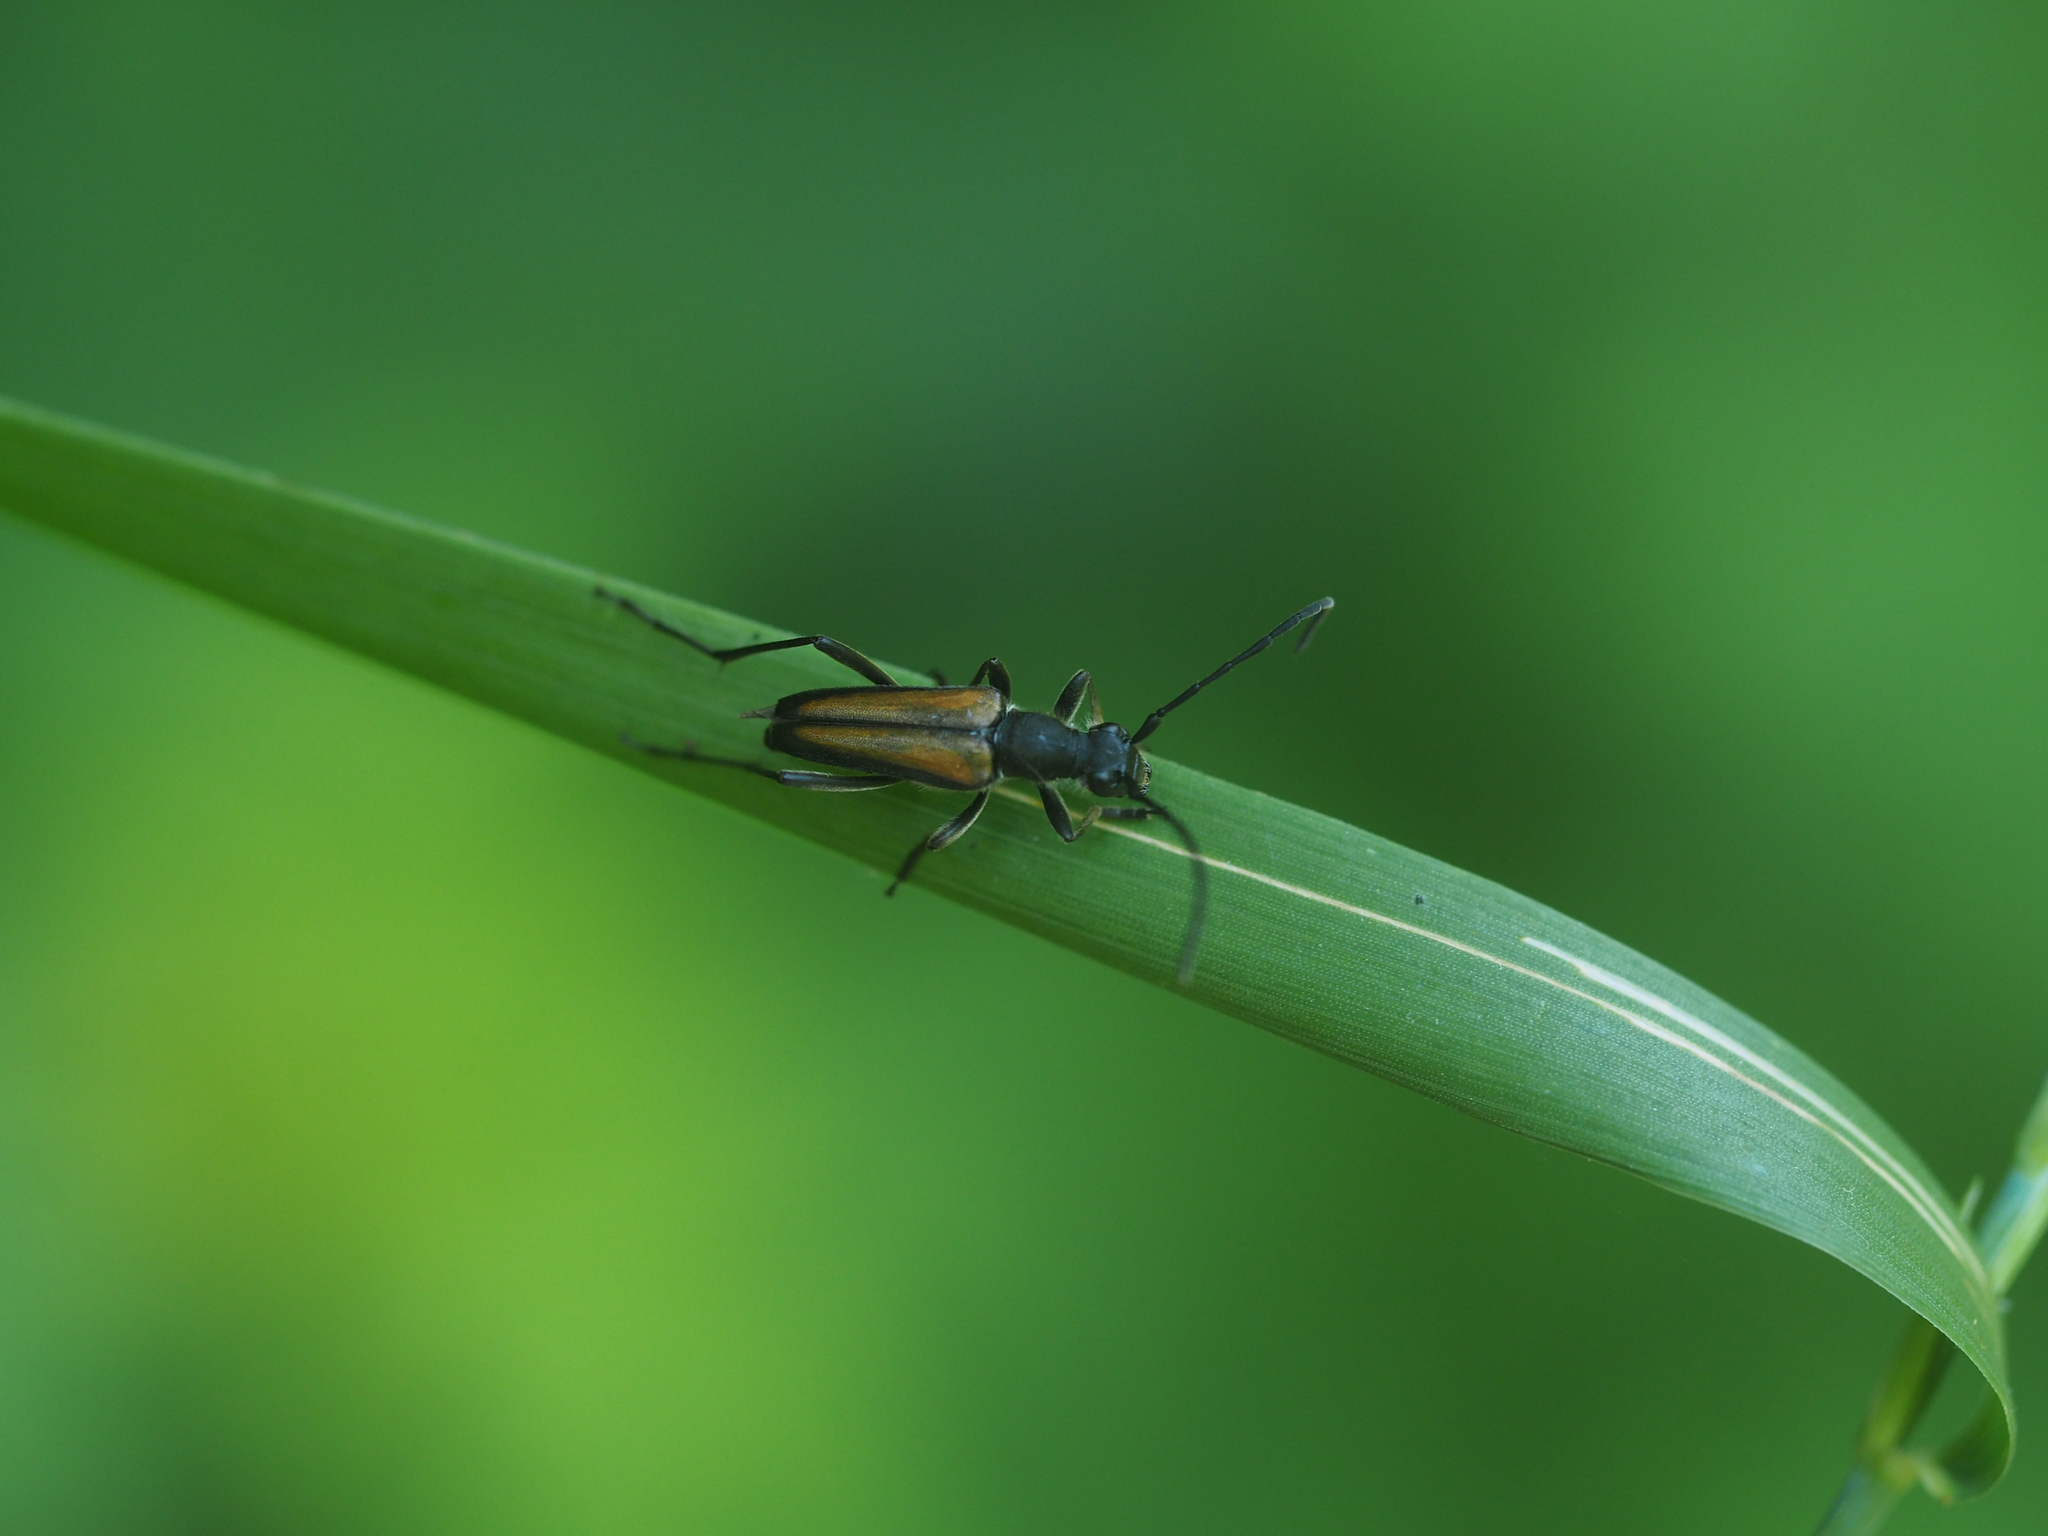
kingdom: Animalia
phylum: Arthropoda
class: Insecta
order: Coleoptera
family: Cerambycidae
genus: Anastrangalia
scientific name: Anastrangalia dubia
